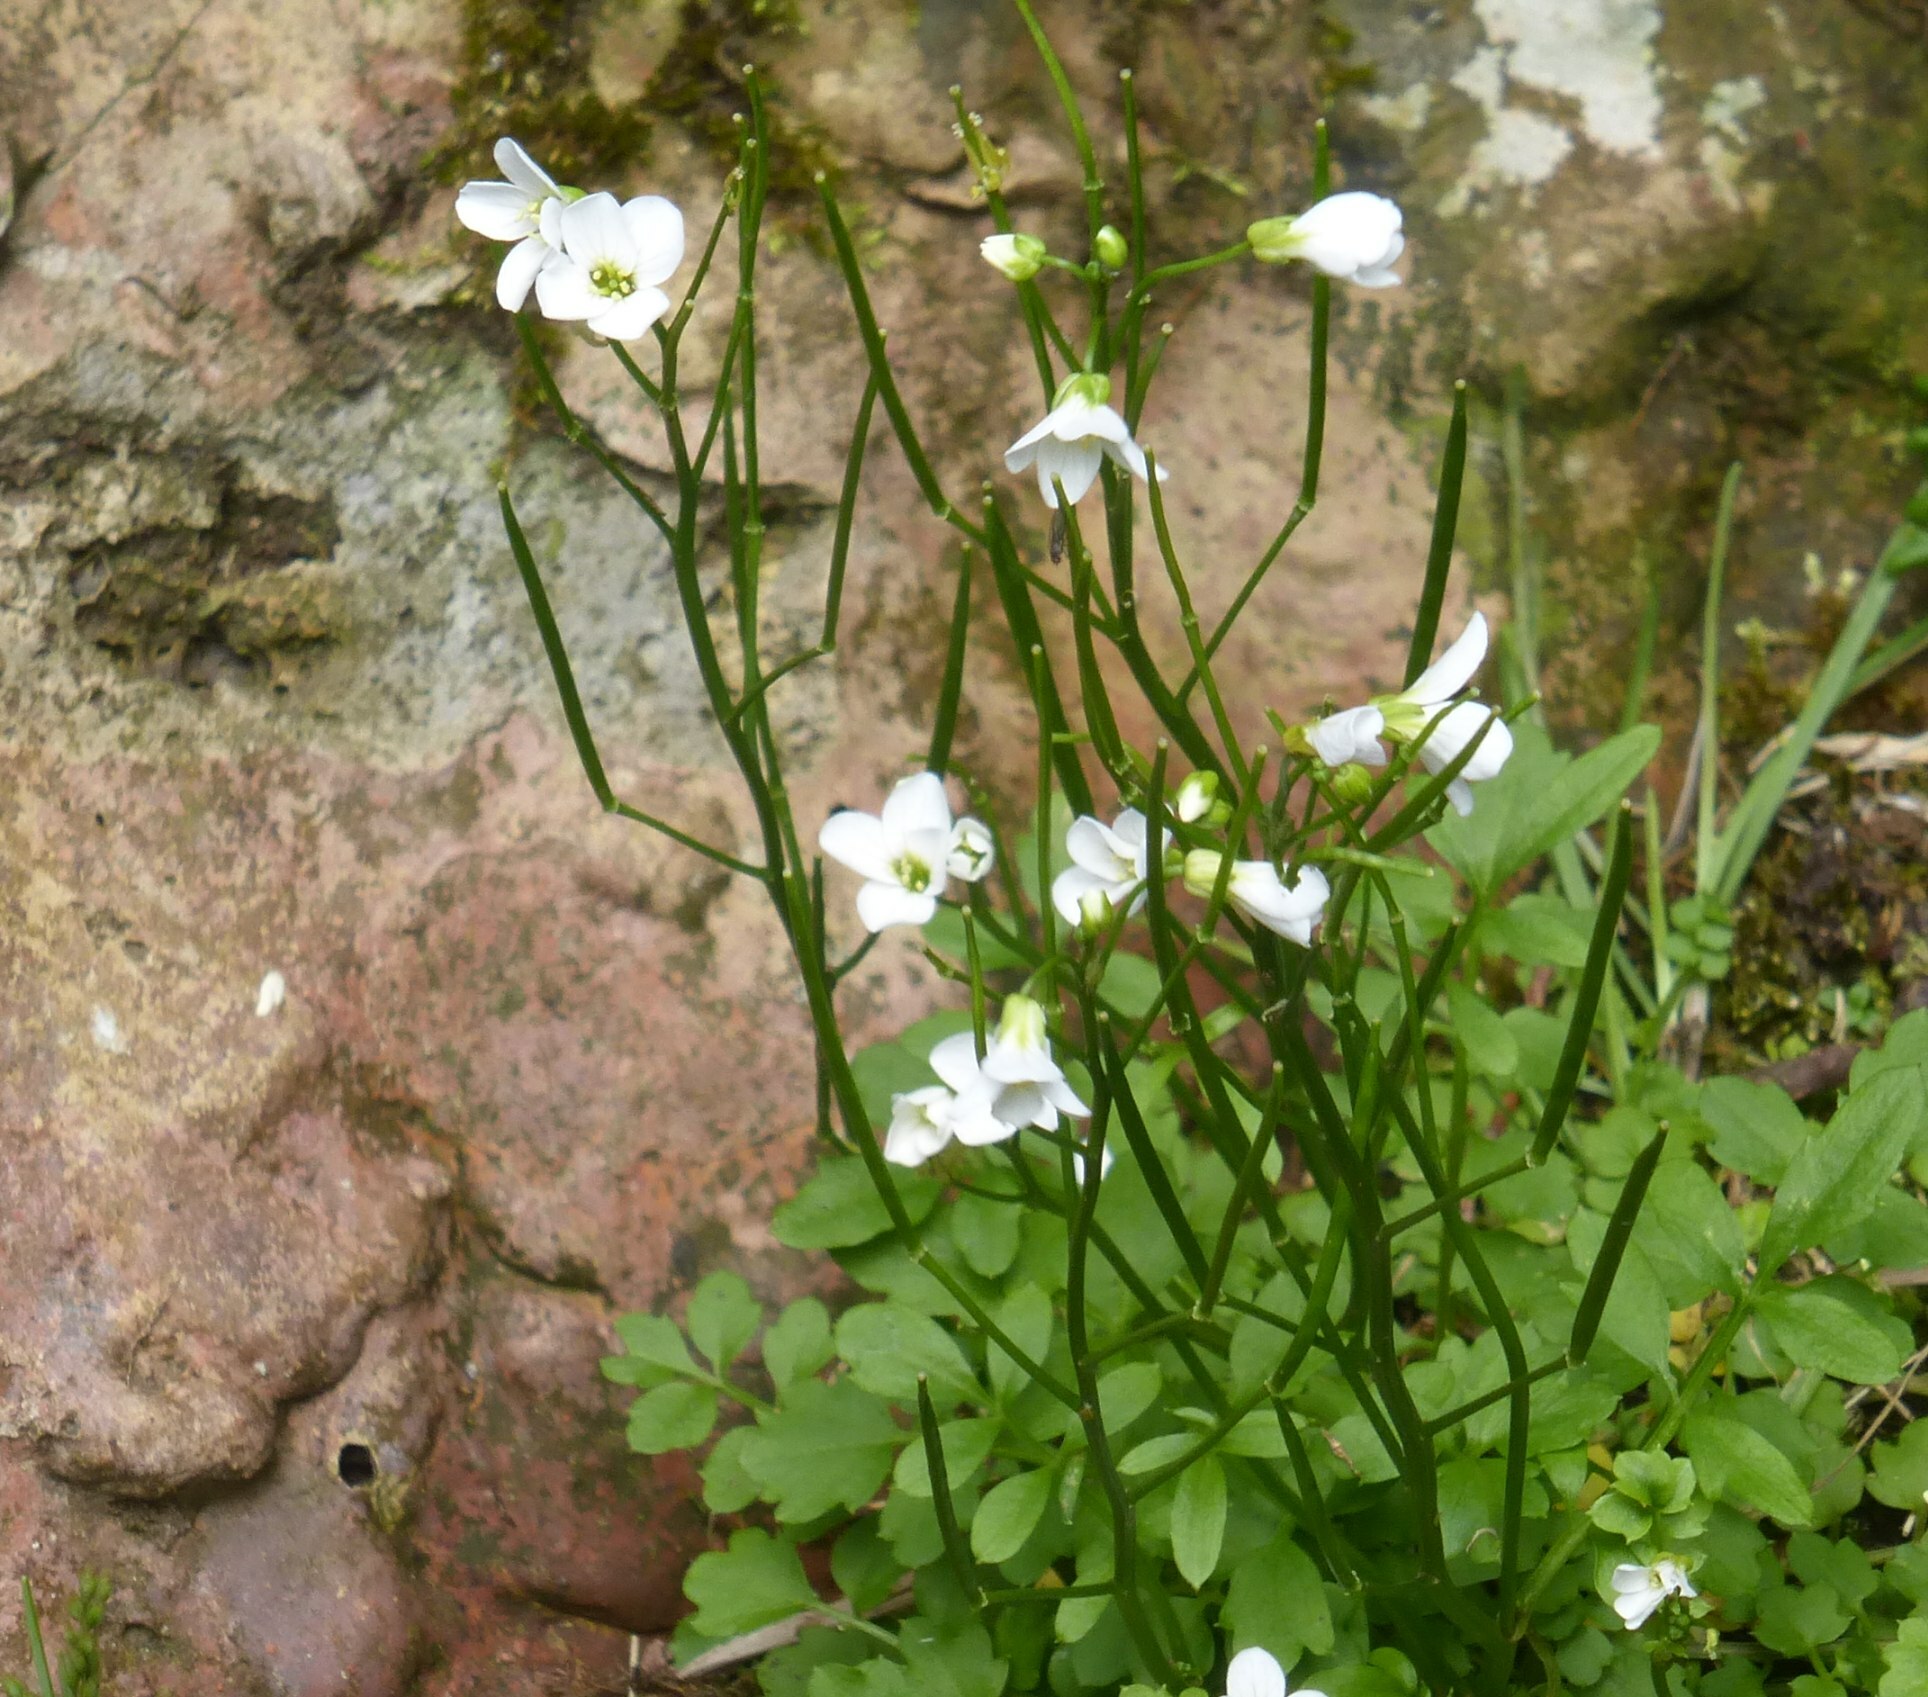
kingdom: Plantae
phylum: Tracheophyta
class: Magnoliopsida
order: Brassicales
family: Brassicaceae
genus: Cardamine
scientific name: Cardamine caldeirarum
